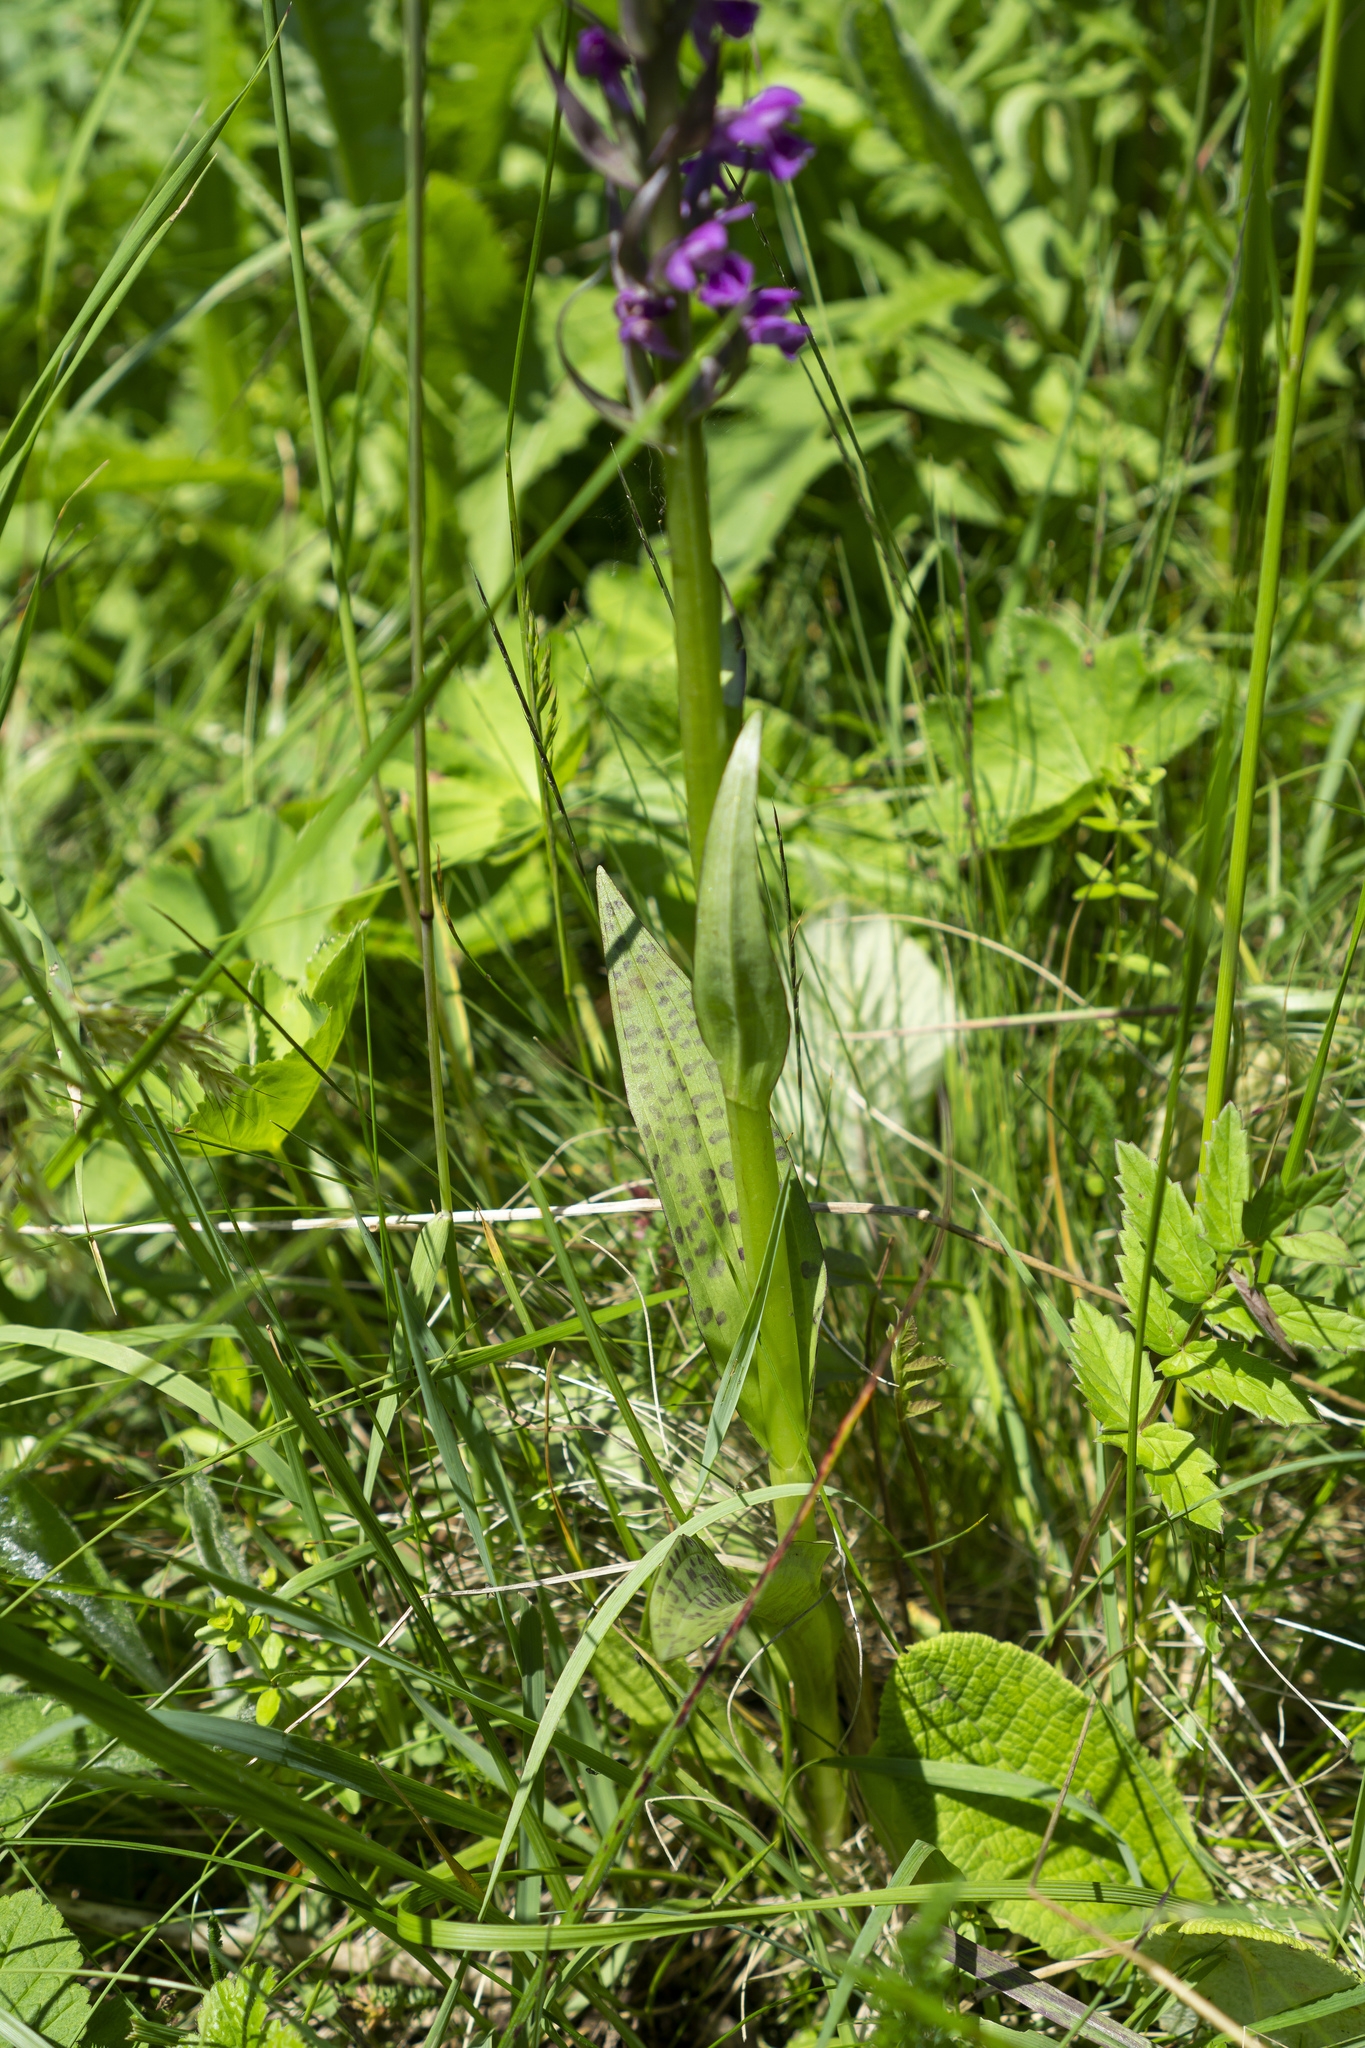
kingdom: Plantae
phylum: Tracheophyta
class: Liliopsida
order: Asparagales
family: Orchidaceae
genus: Dactylorhiza
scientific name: Dactylorhiza majalis
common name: Marsh orchid
